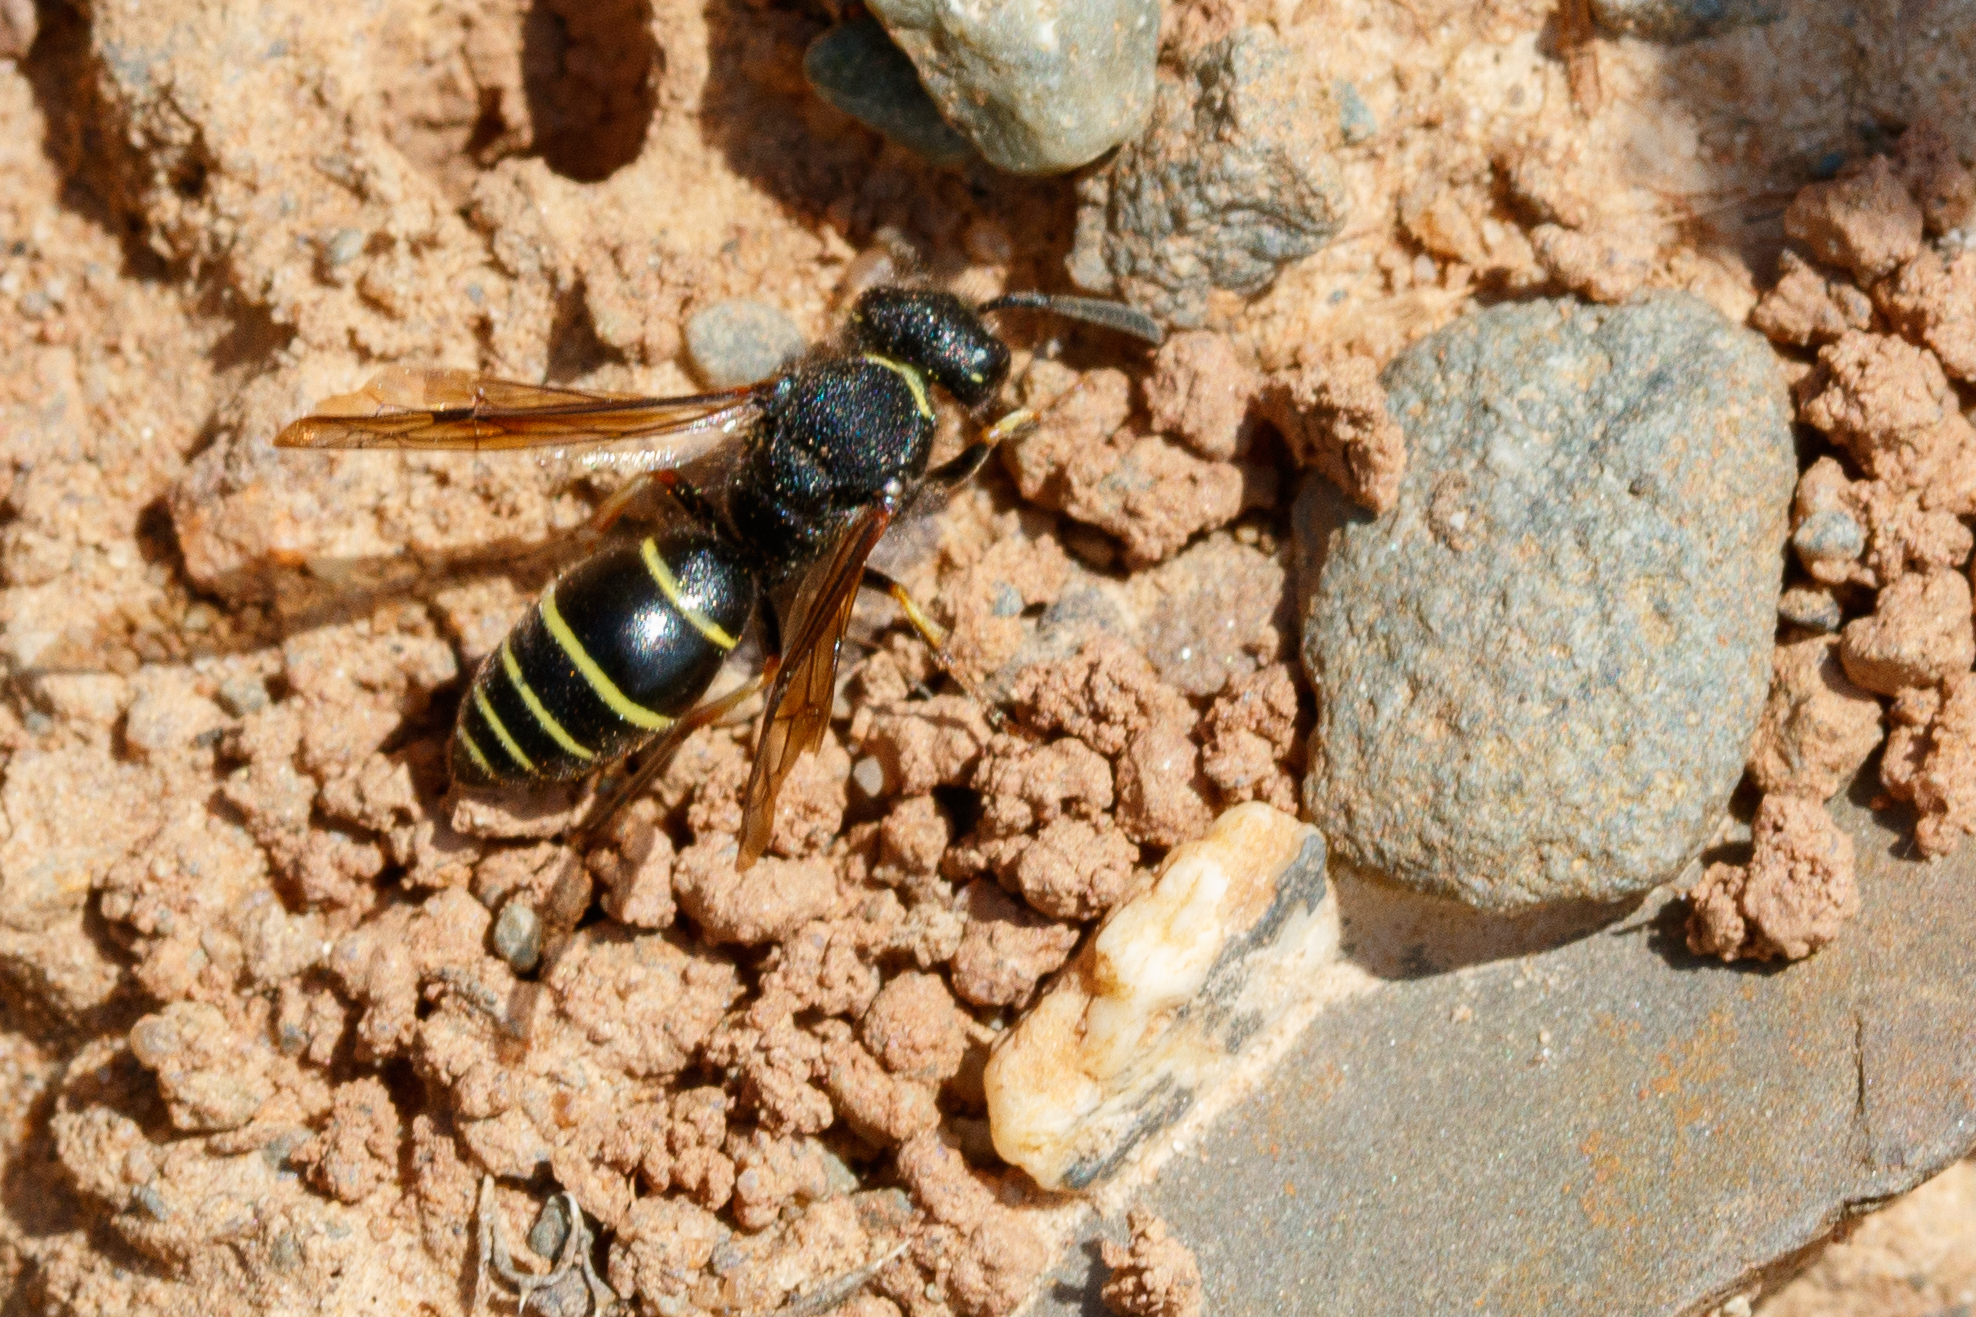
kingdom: Animalia
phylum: Arthropoda
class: Insecta
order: Hymenoptera
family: Vespidae
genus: Odynerus
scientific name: Odynerus spinipes
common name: Spiny mason wasp
